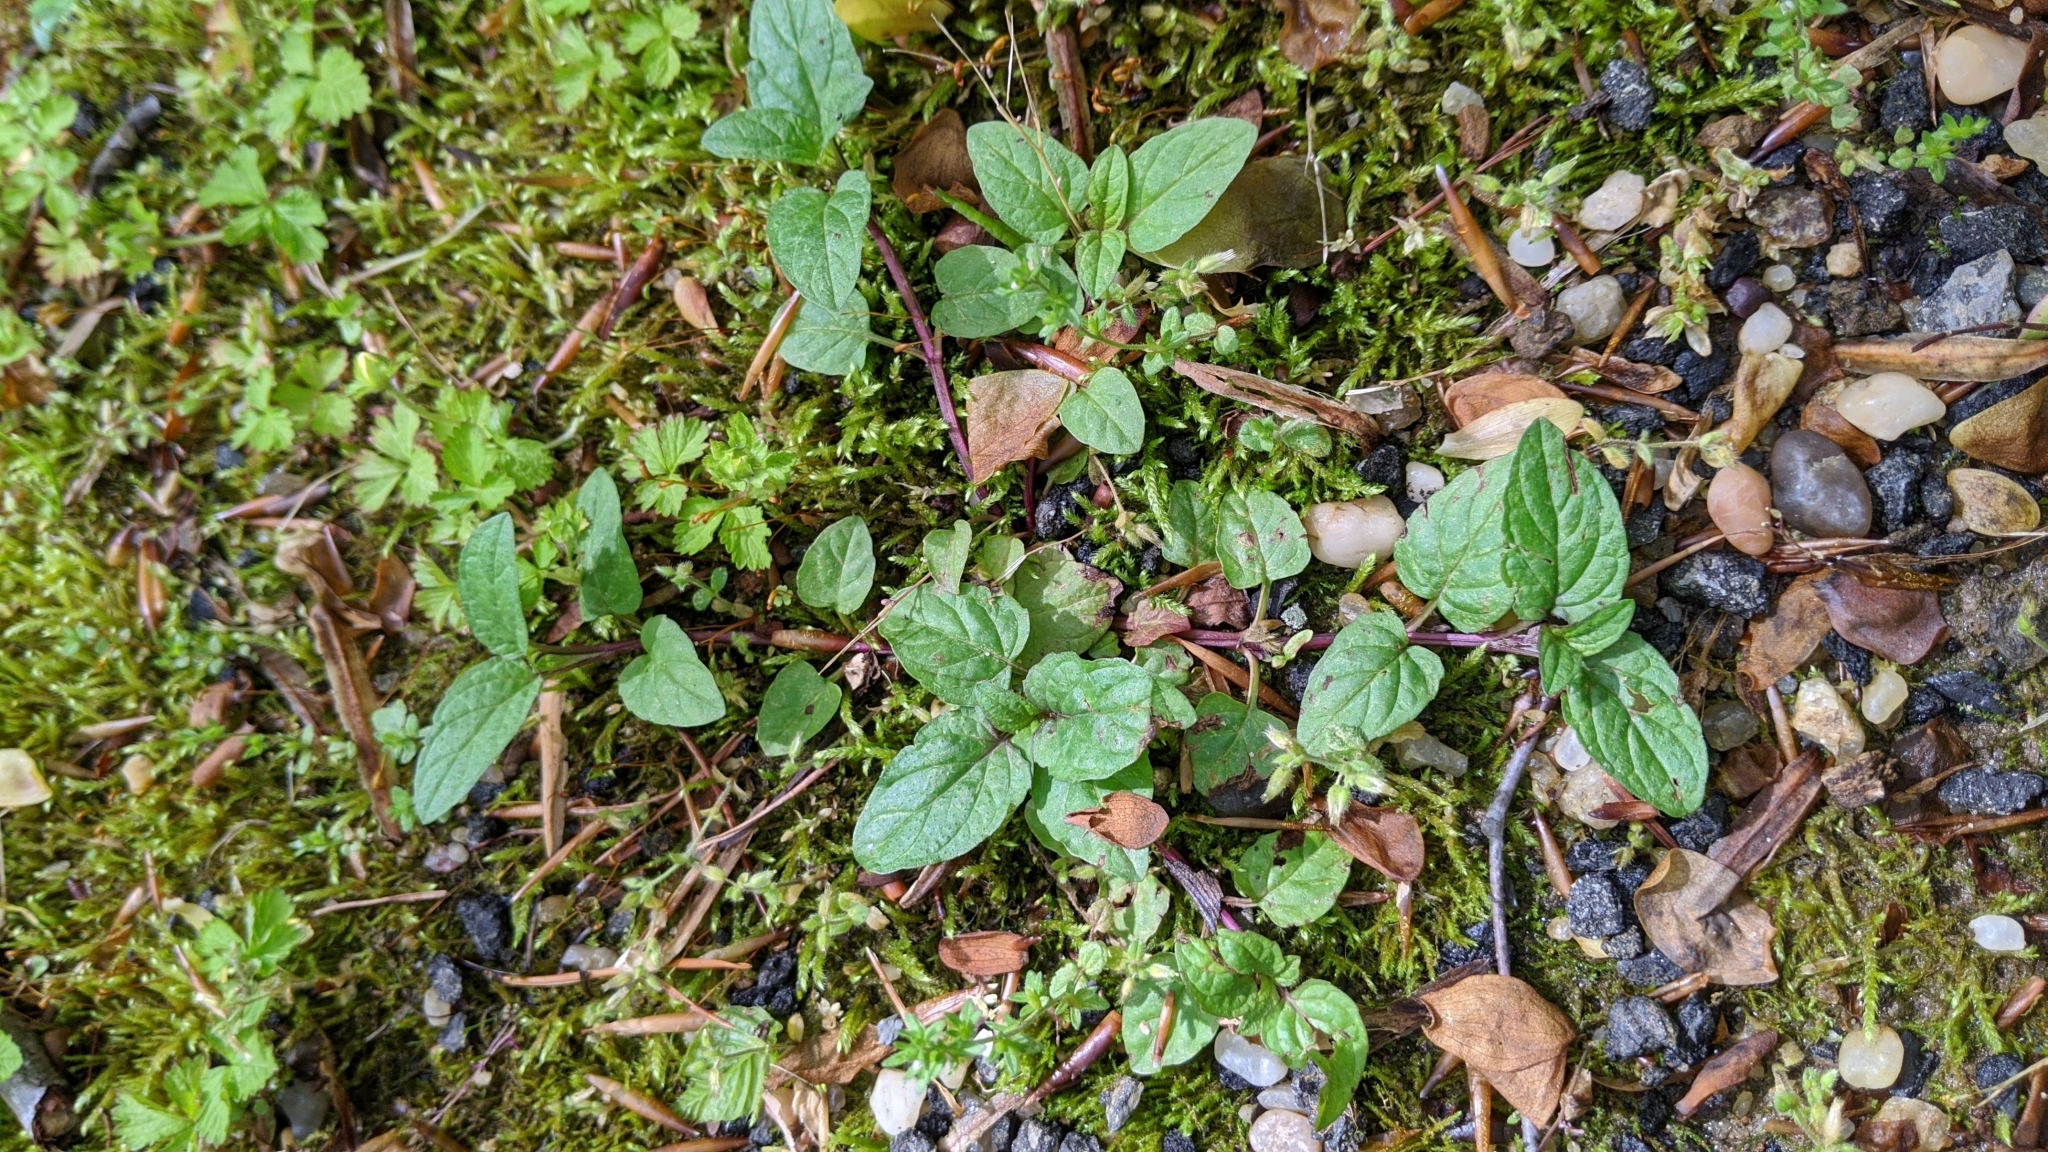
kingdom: Plantae
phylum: Tracheophyta
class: Magnoliopsida
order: Lamiales
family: Lamiaceae
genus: Prunella
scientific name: Prunella vulgaris
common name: Heal-all
